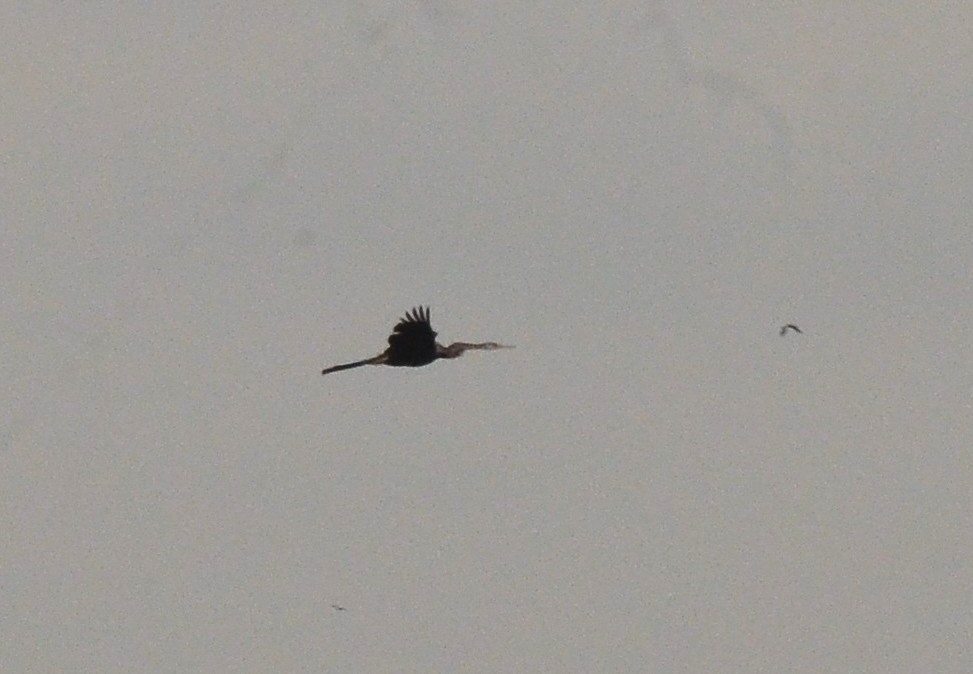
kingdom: Animalia
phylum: Chordata
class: Aves
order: Suliformes
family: Anhingidae
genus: Anhinga
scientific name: Anhinga melanogaster
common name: Oriental darter
